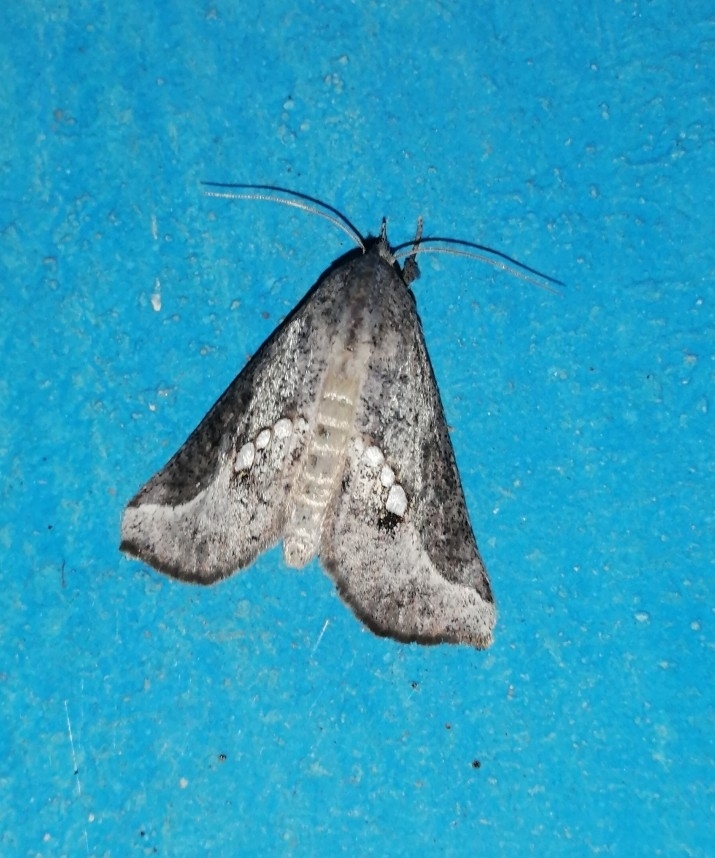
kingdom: Animalia
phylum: Arthropoda
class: Insecta
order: Lepidoptera
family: Erebidae
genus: Hypsoropha
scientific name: Hypsoropha adeona
